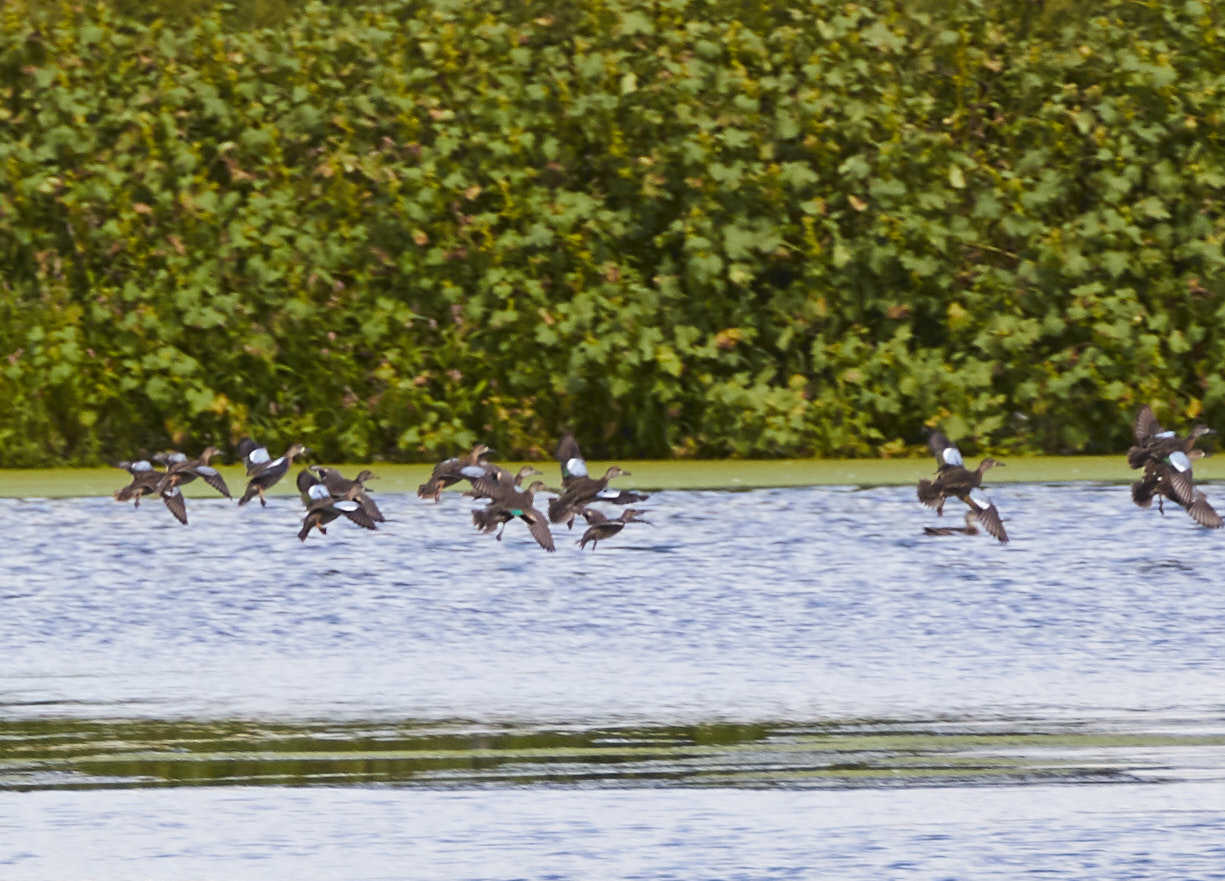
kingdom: Animalia
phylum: Chordata
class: Aves
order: Anseriformes
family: Anatidae
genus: Spatula
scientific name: Spatula discors
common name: Blue-winged teal
